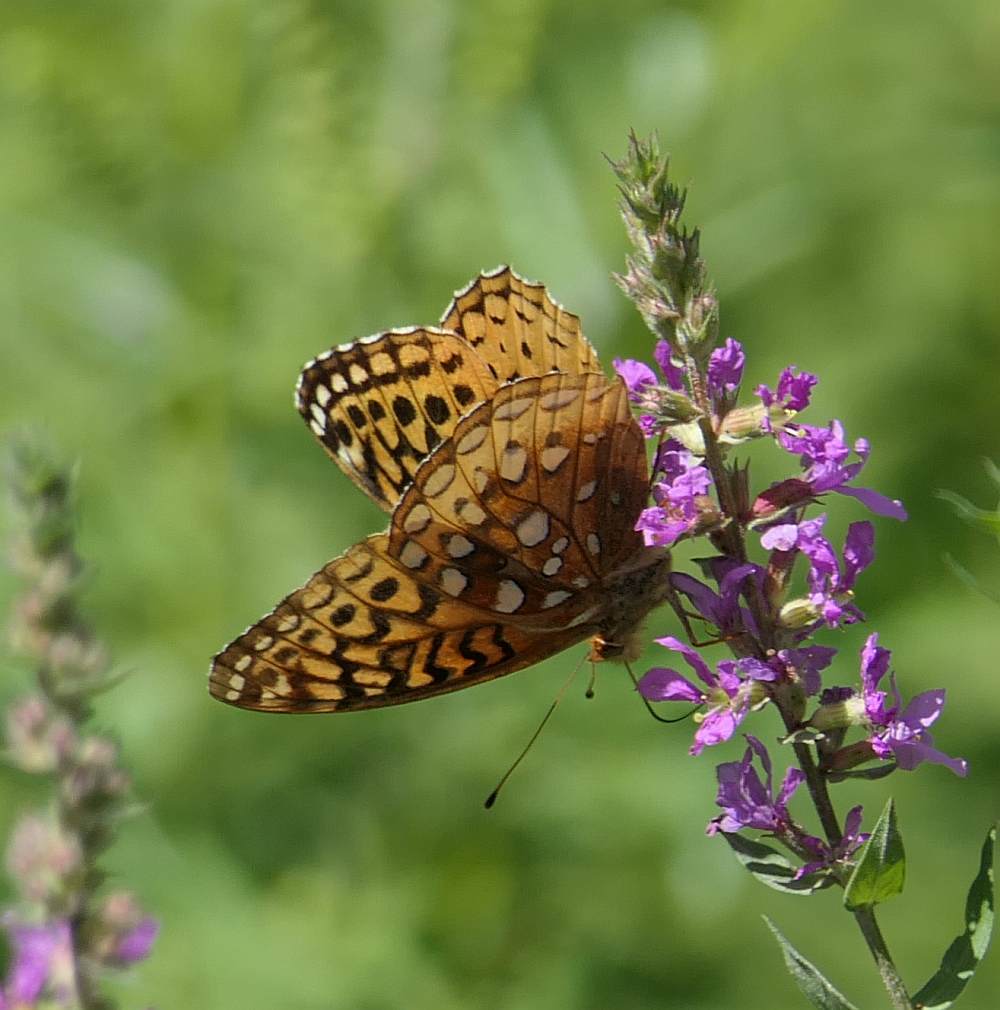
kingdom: Animalia
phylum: Arthropoda
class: Insecta
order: Lepidoptera
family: Nymphalidae
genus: Speyeria
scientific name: Speyeria cybele
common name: Great spangled fritillary
